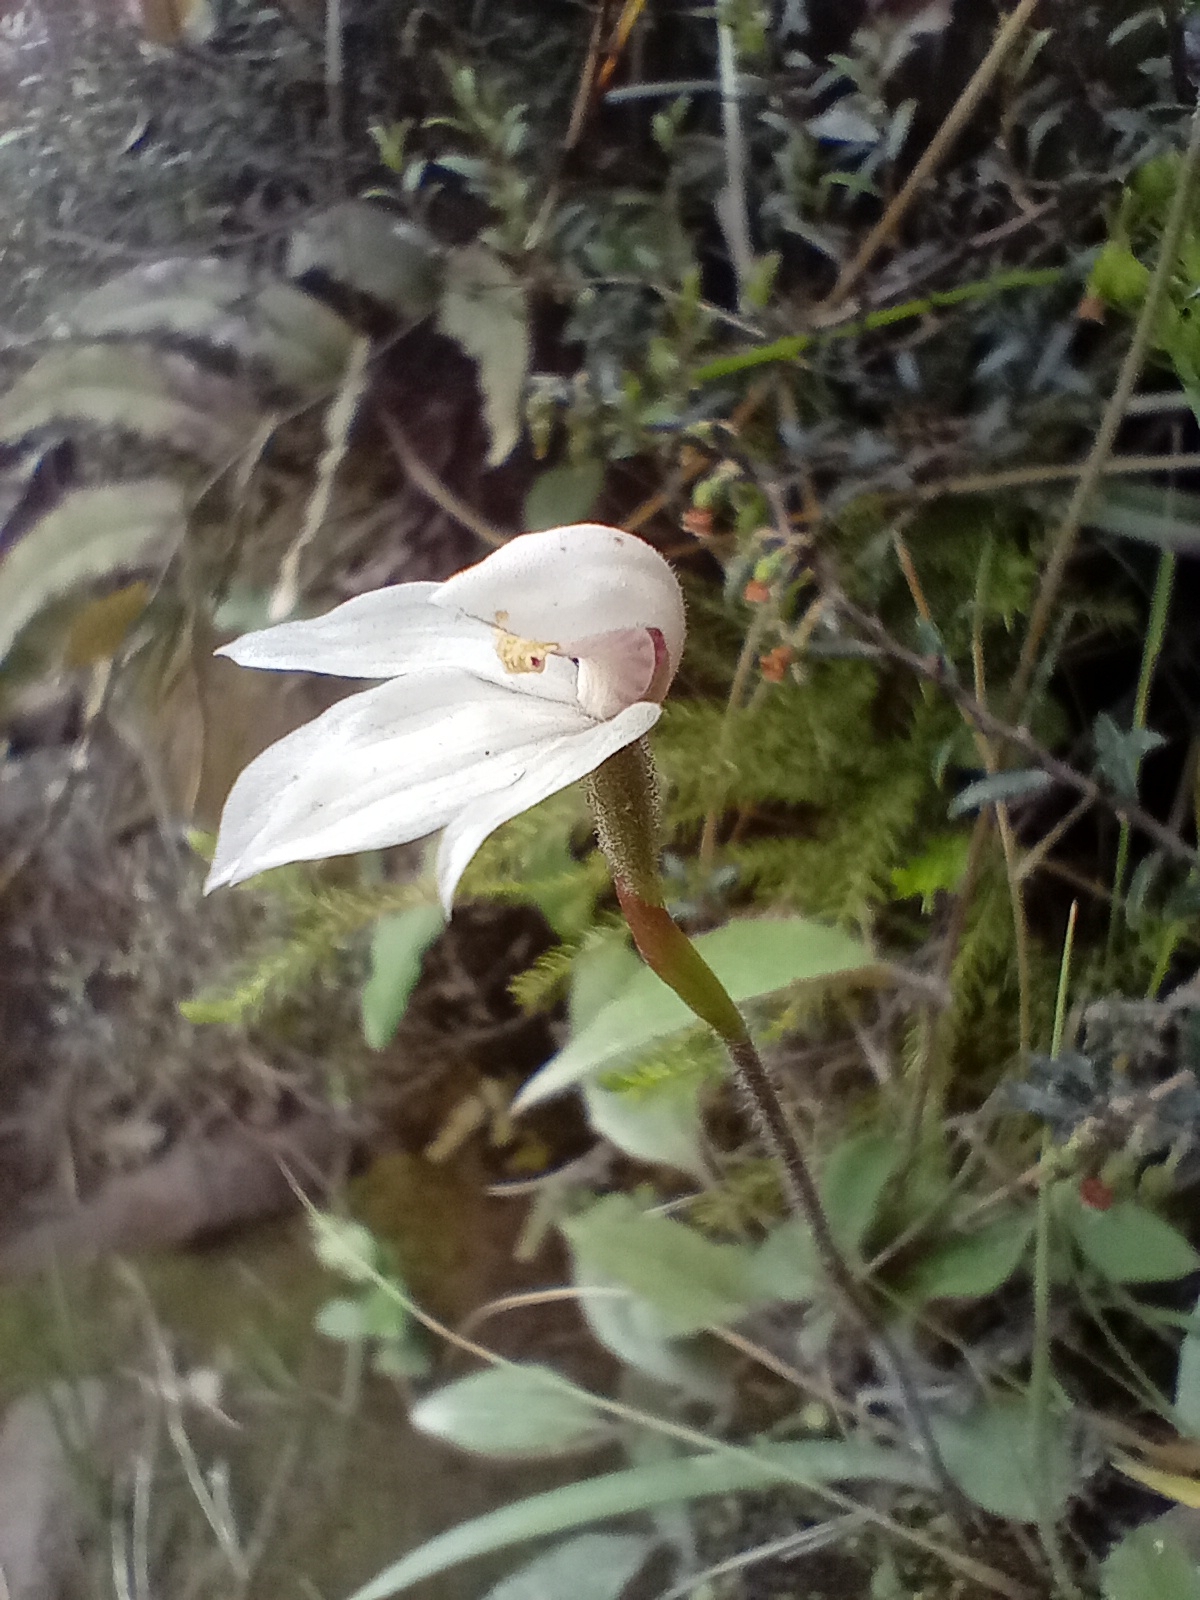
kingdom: Plantae
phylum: Tracheophyta
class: Liliopsida
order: Asparagales
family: Orchidaceae
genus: Caladenia
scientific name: Caladenia lyallii
